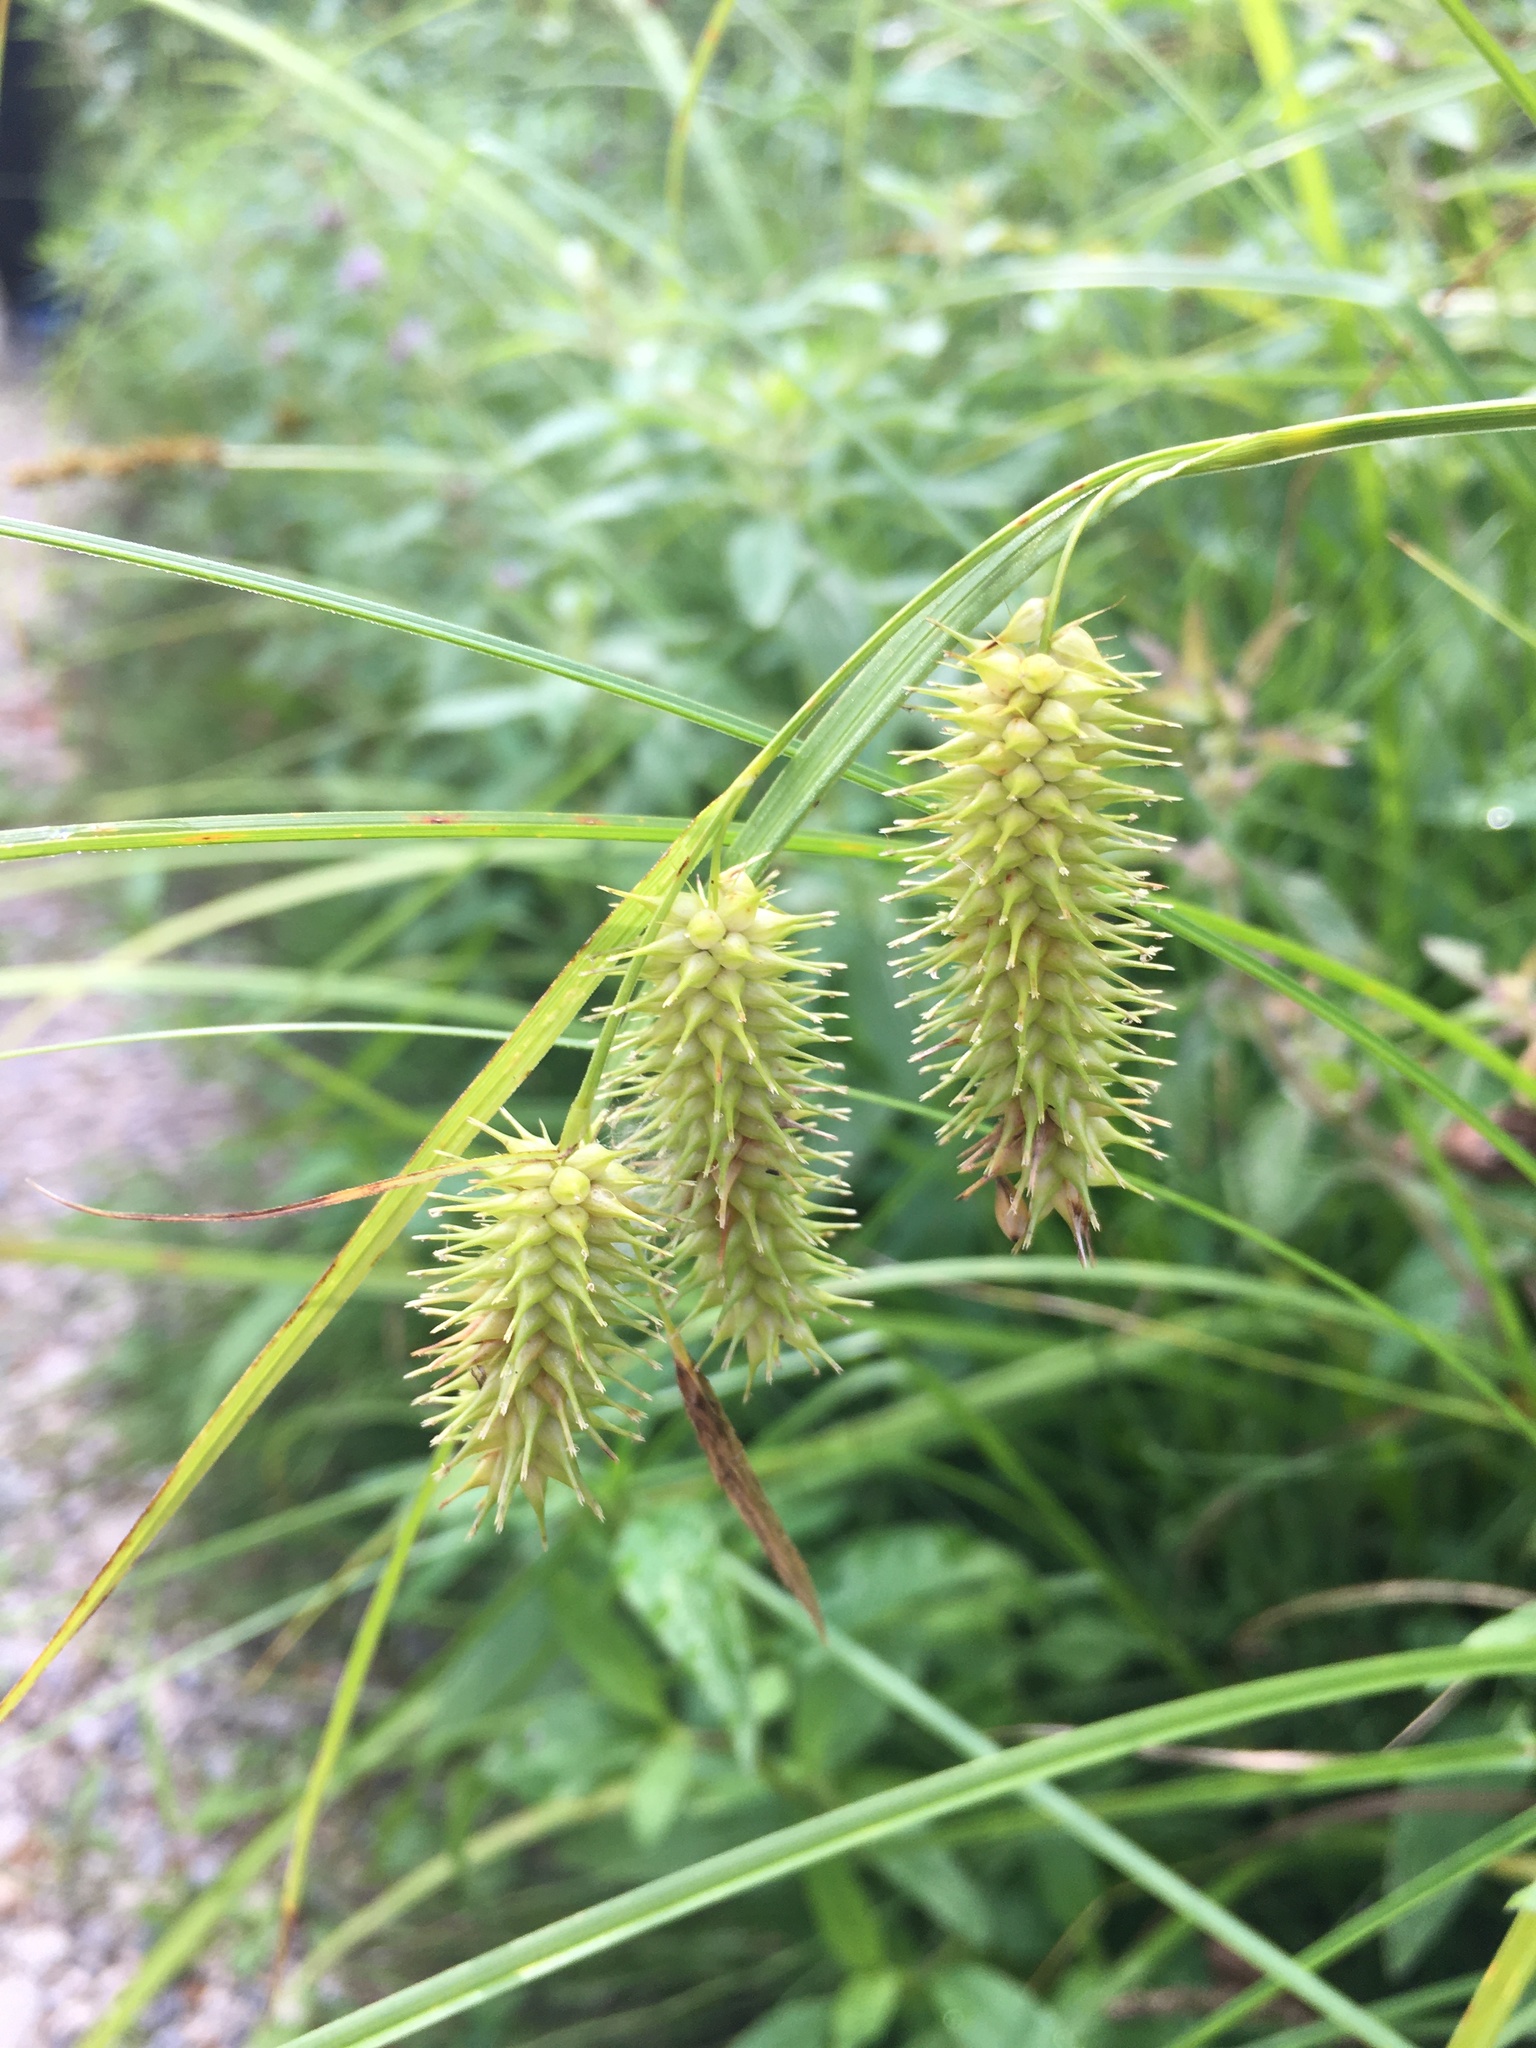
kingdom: Plantae
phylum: Tracheophyta
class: Liliopsida
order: Poales
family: Cyperaceae
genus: Carex
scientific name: Carex hystericina
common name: Bottlebrush sedge
